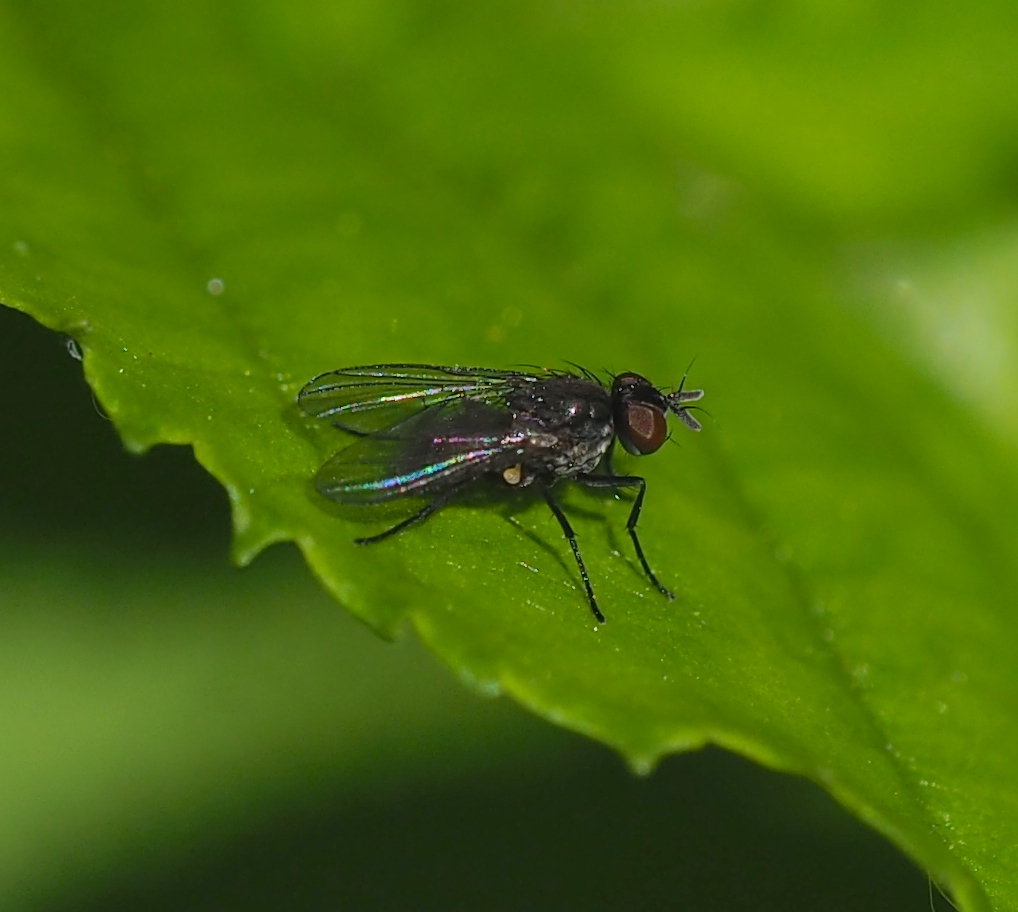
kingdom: Animalia
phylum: Arthropoda
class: Insecta
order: Diptera
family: Muscidae
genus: Coenosia
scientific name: Coenosia agromyzina
